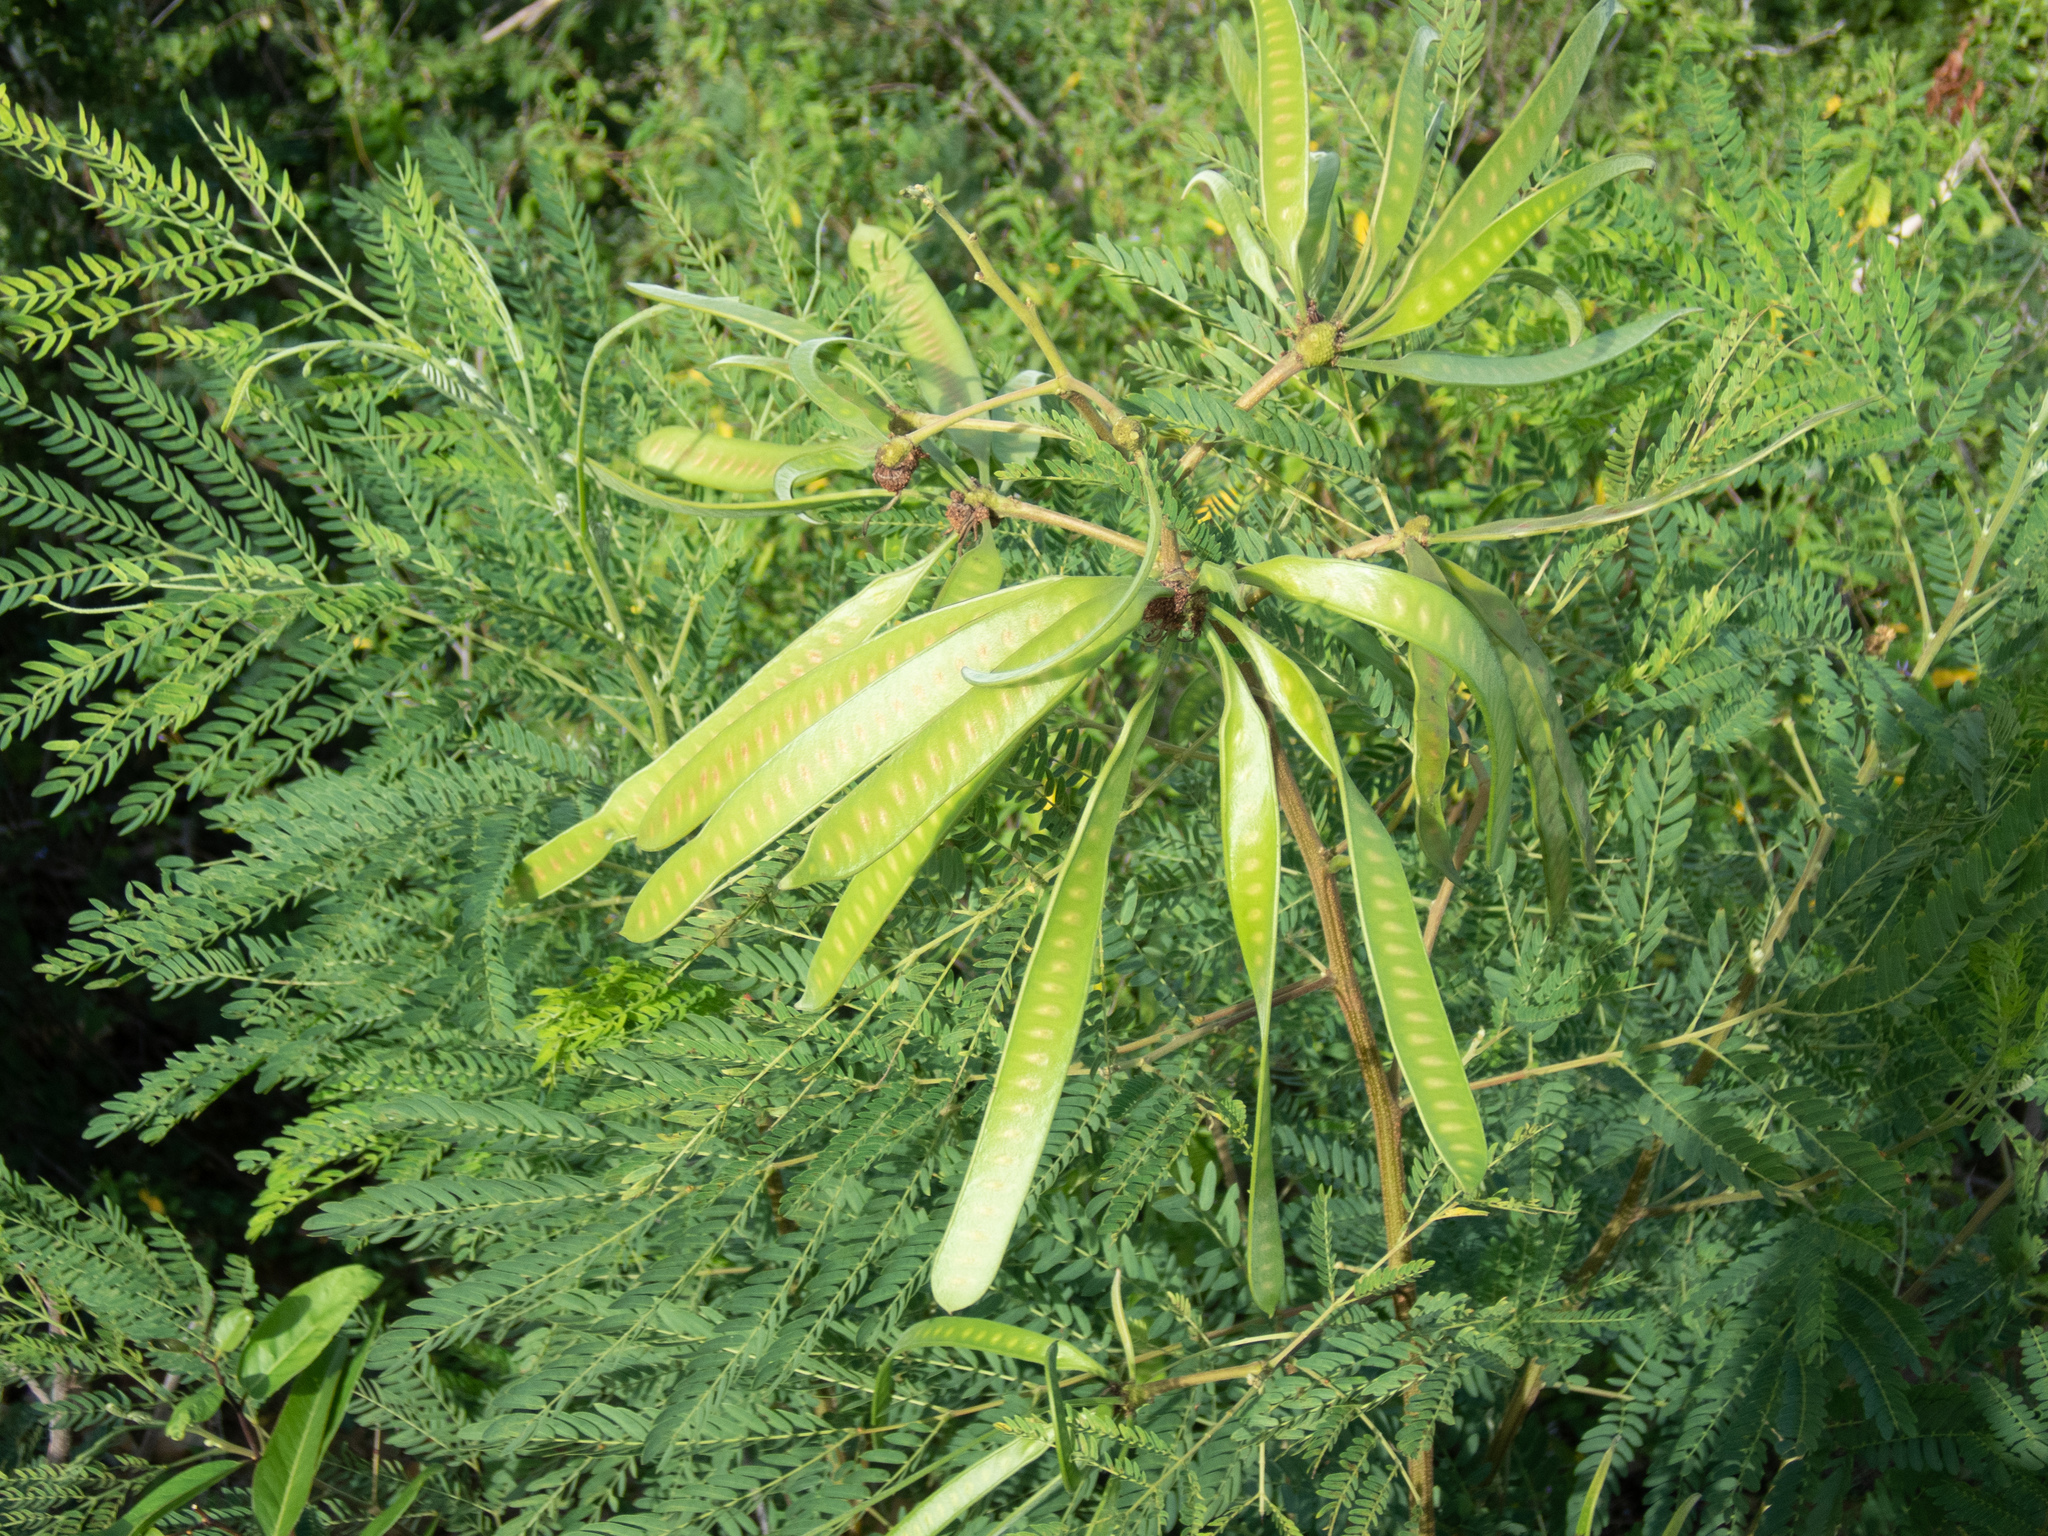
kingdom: Plantae
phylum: Tracheophyta
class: Magnoliopsida
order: Fabales
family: Fabaceae
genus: Leucaena
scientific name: Leucaena leucocephala
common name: White leadtree
